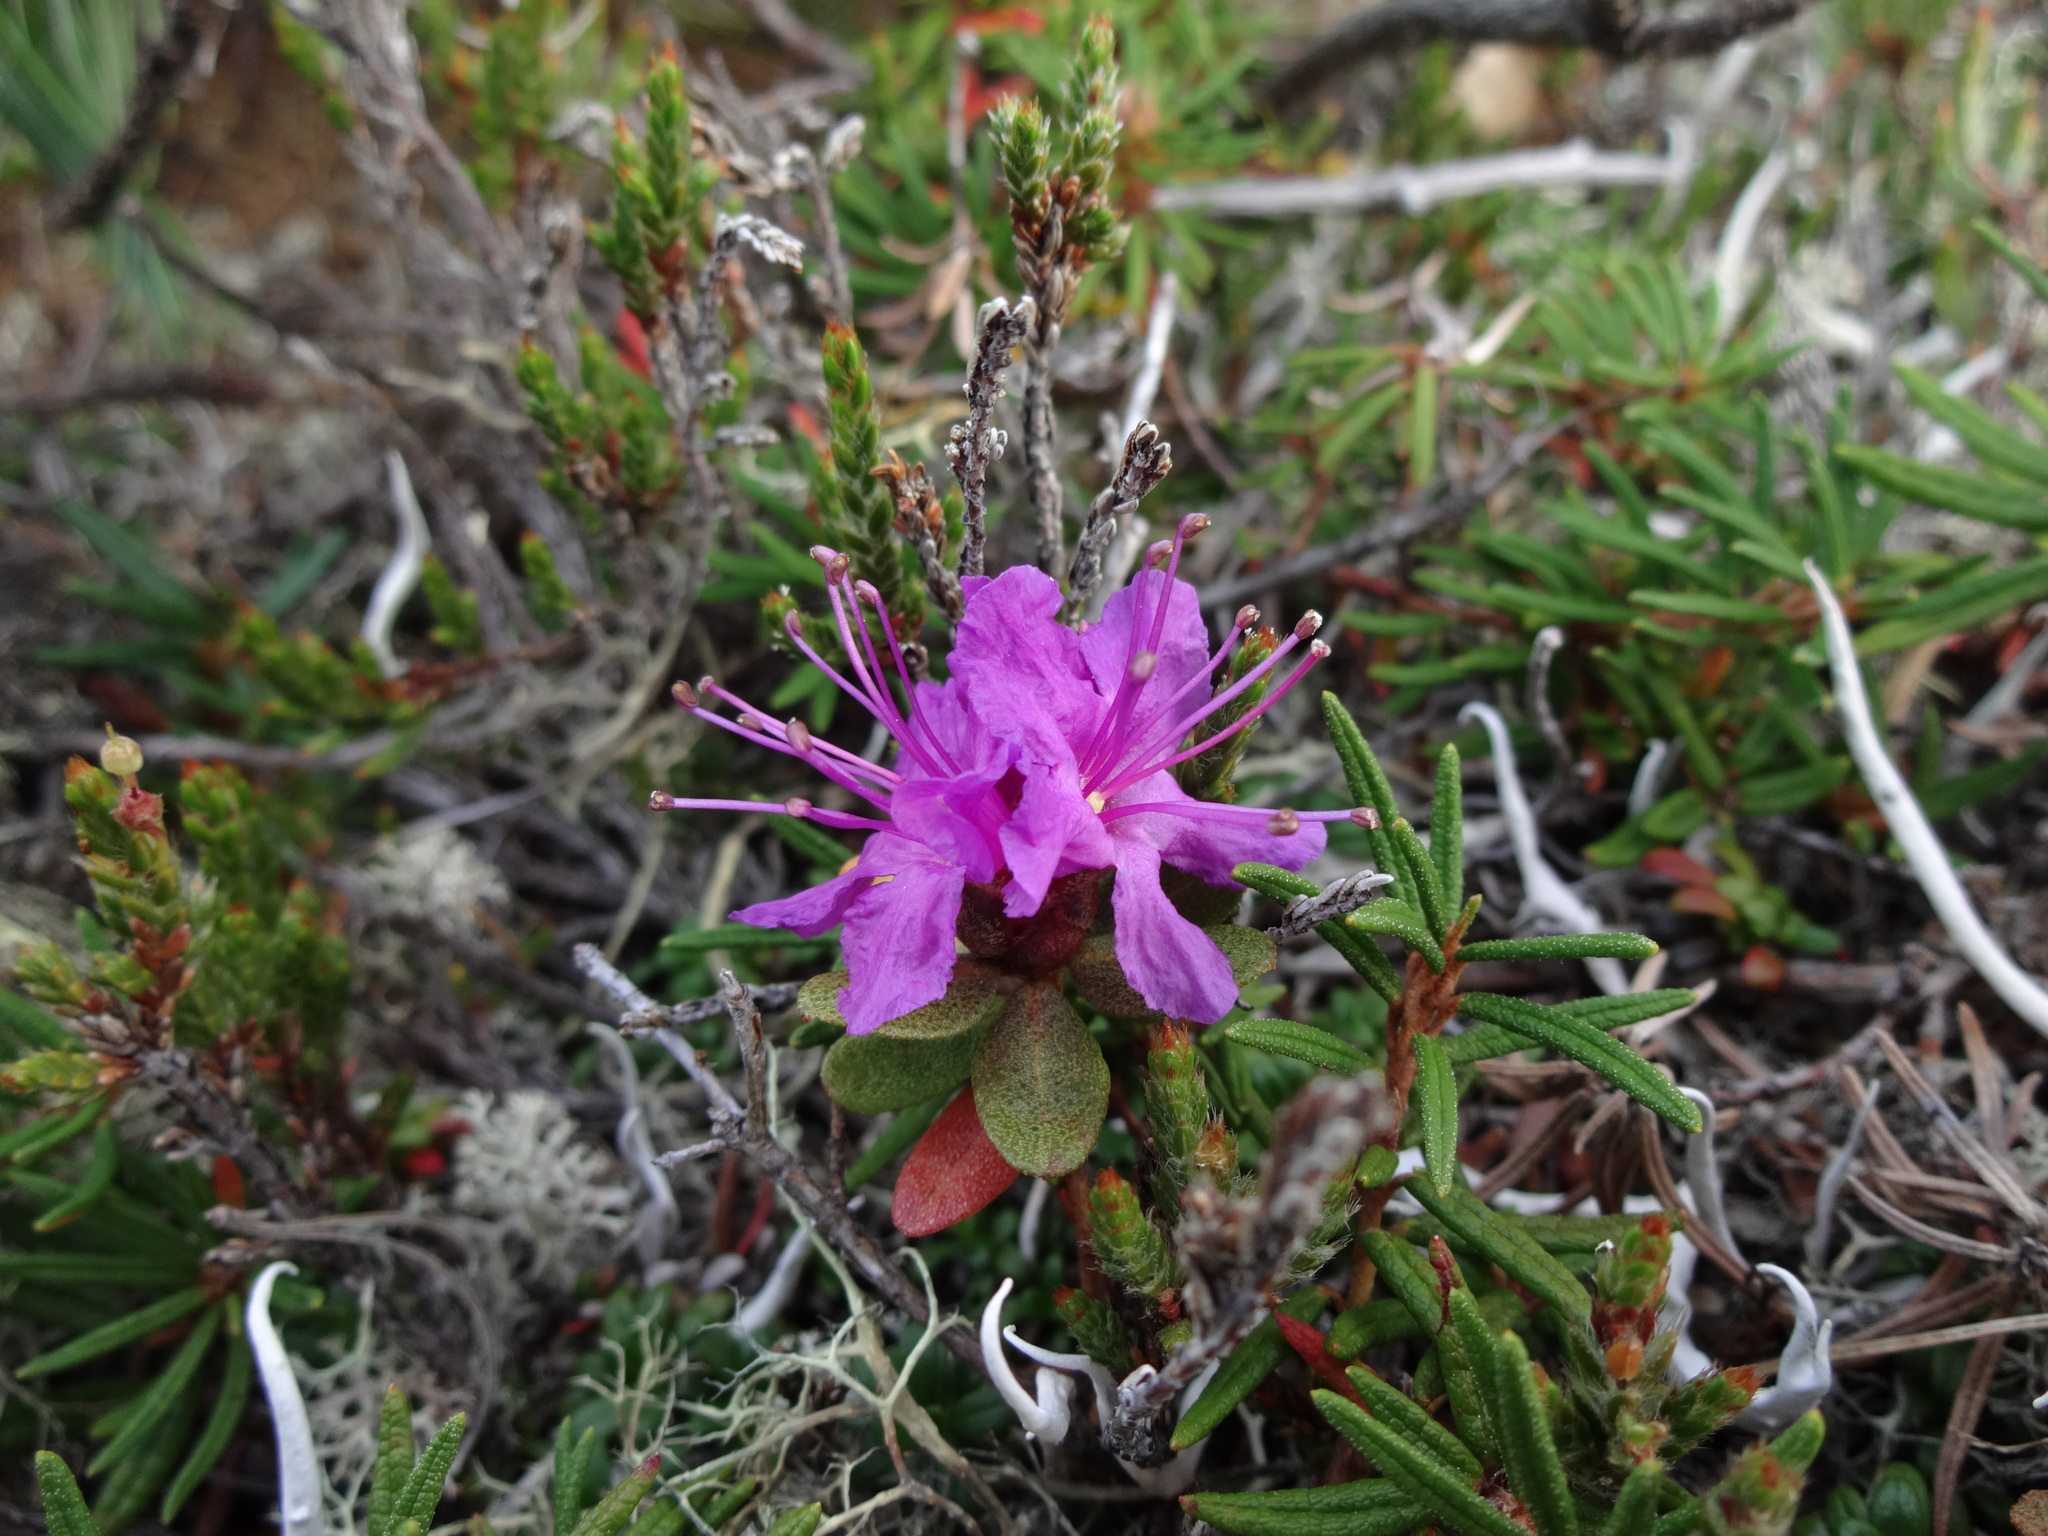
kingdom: Plantae
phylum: Tracheophyta
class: Magnoliopsida
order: Ericales
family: Ericaceae
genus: Rhododendron
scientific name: Rhododendron lapponicum
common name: Lapland rhododendron
